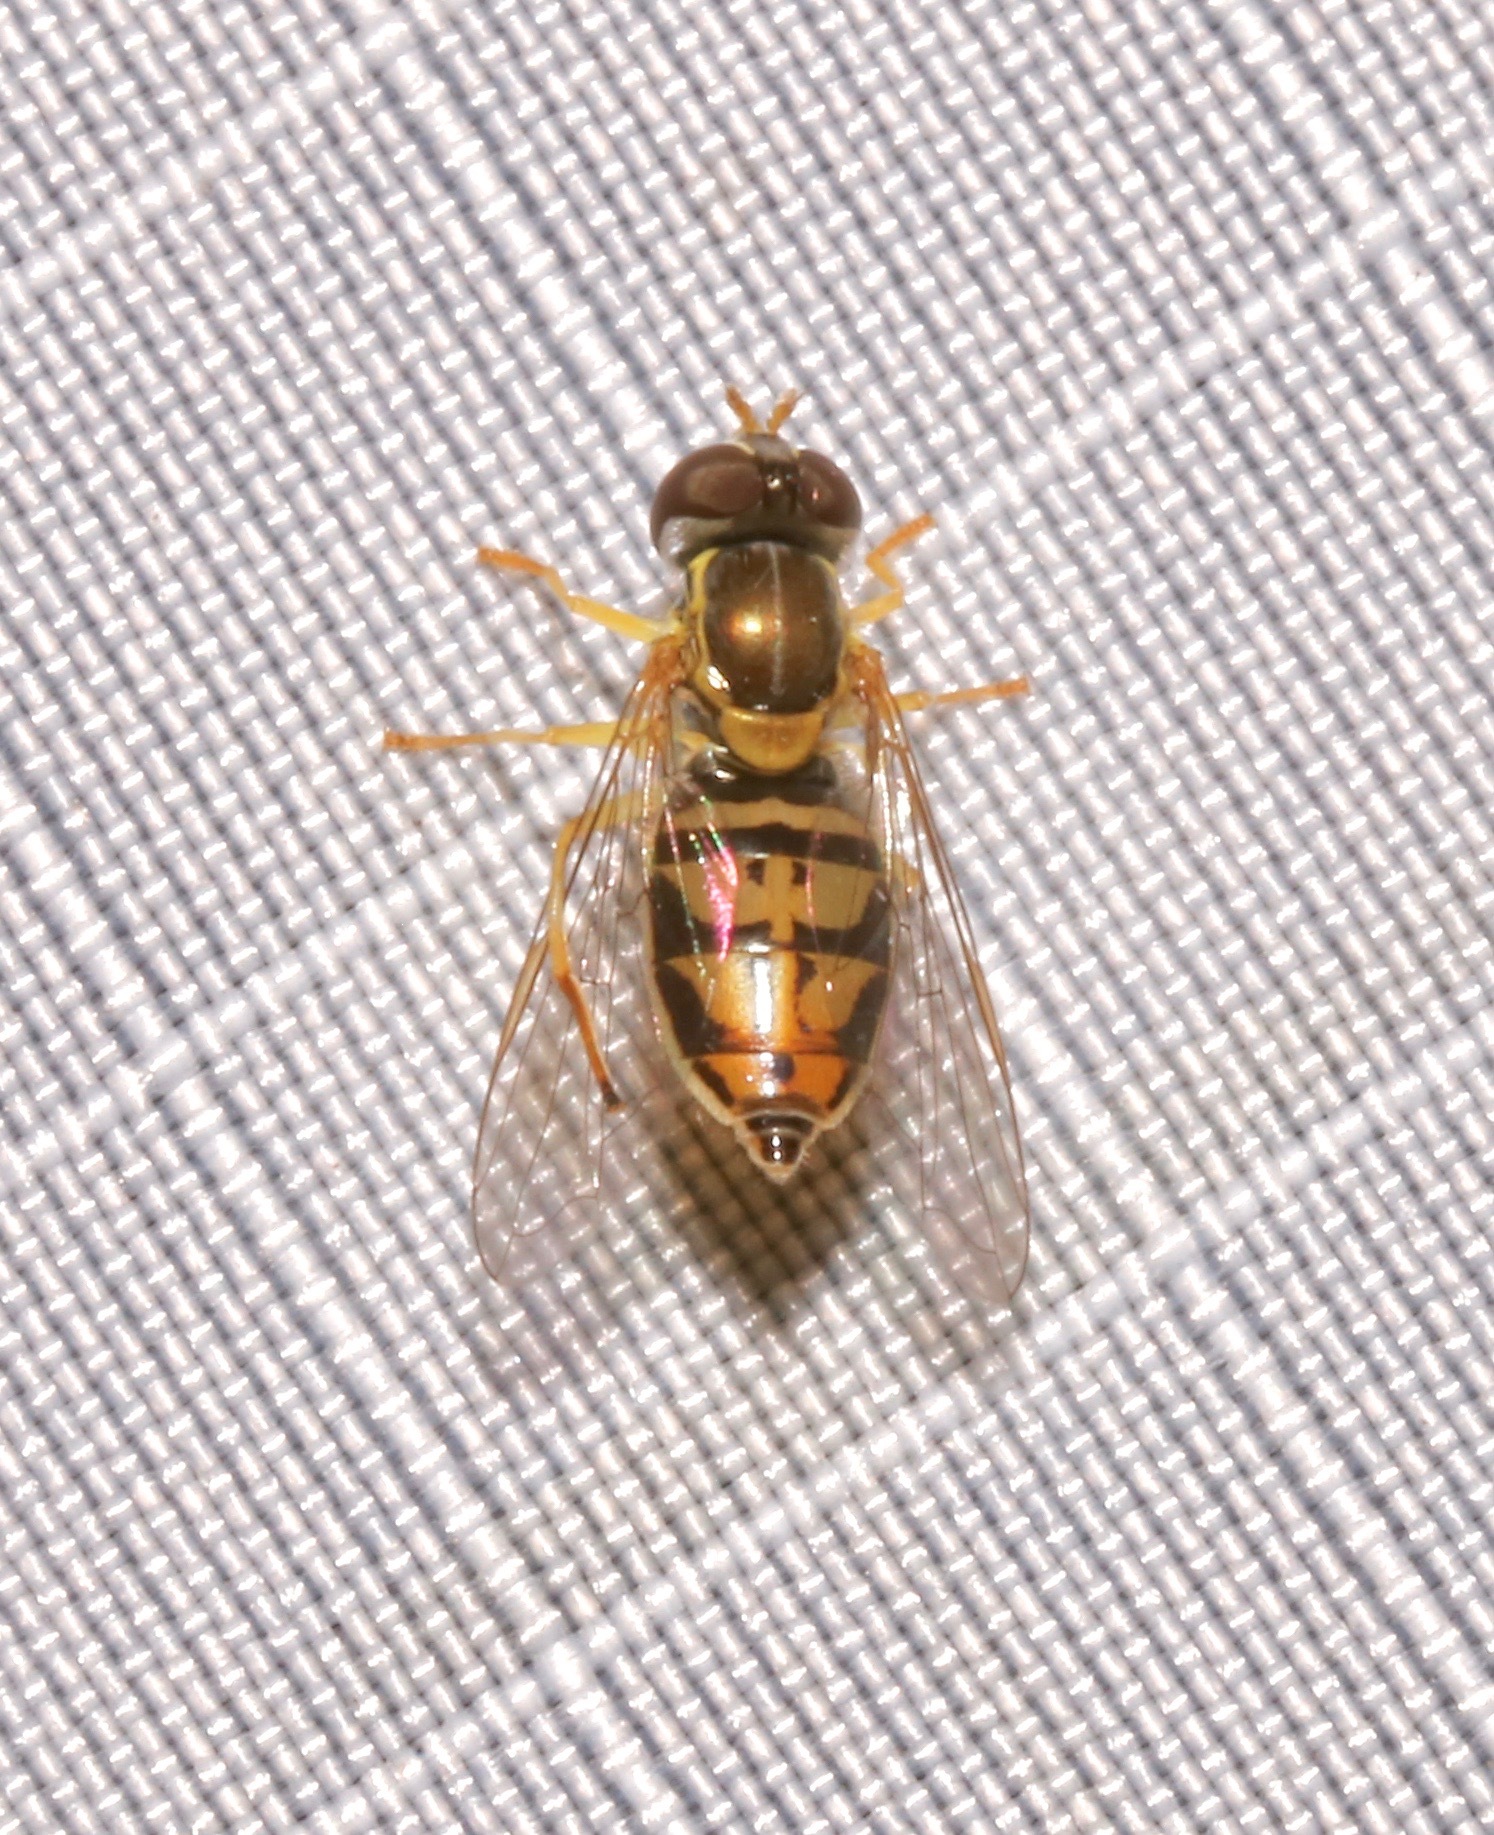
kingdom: Animalia
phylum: Arthropoda
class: Insecta
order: Diptera
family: Syrphidae
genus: Toxomerus
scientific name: Toxomerus marginatus
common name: Syrphid fly
